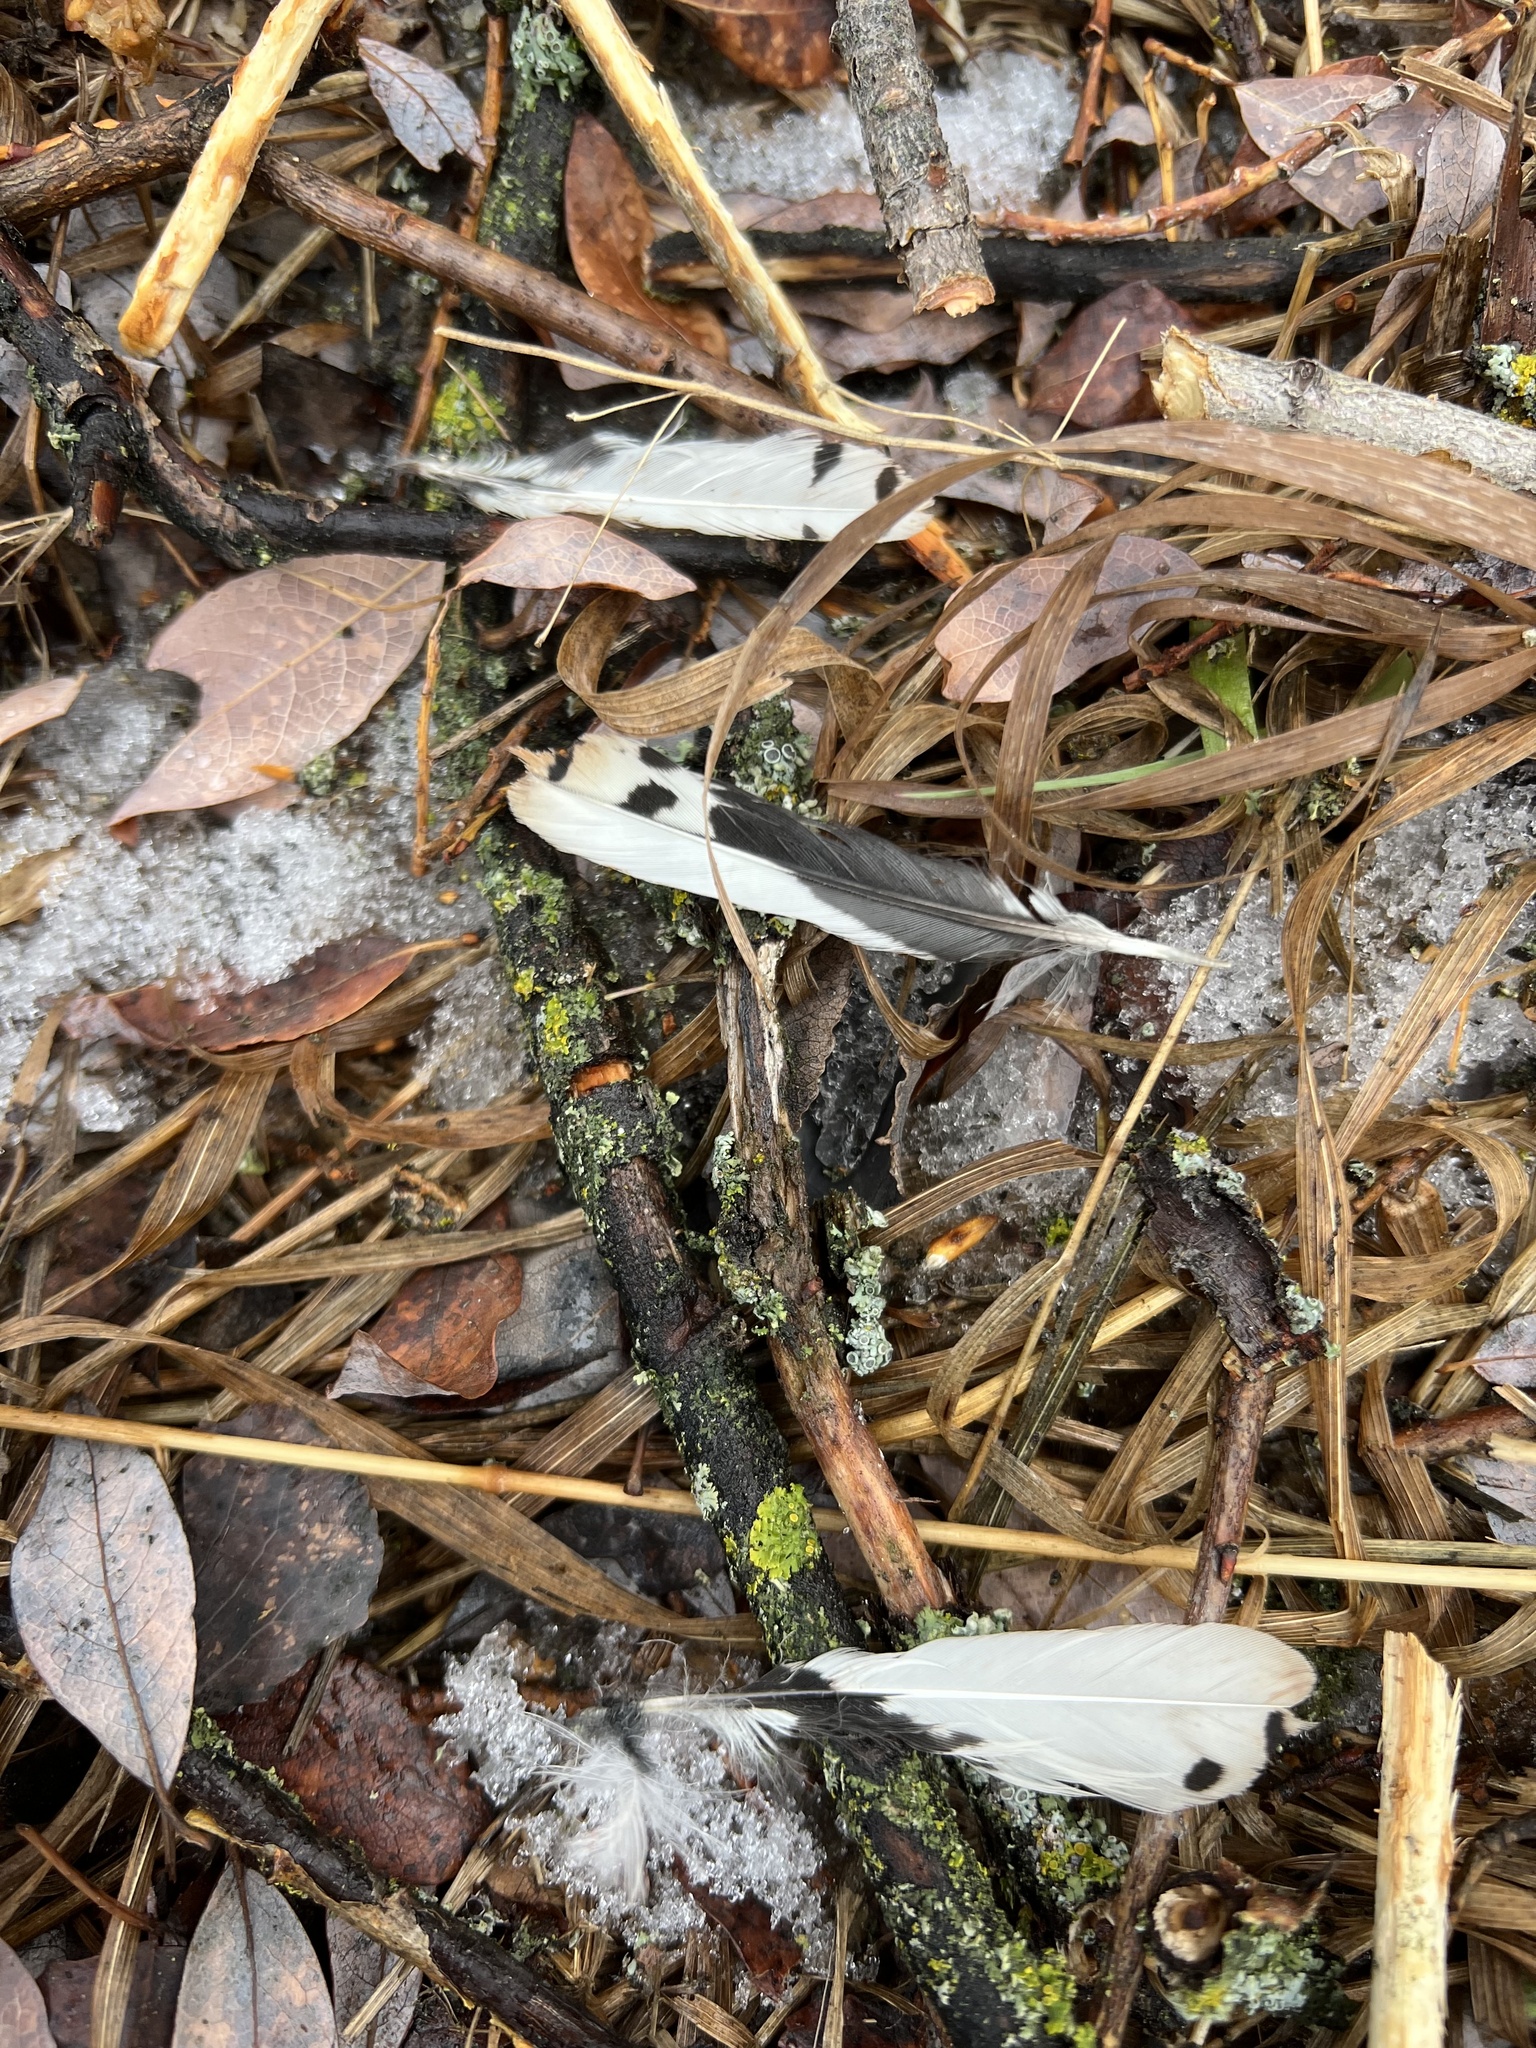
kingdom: Animalia
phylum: Chordata
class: Aves
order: Piciformes
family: Picidae
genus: Dryobates
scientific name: Dryobates pubescens
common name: Downy woodpecker
